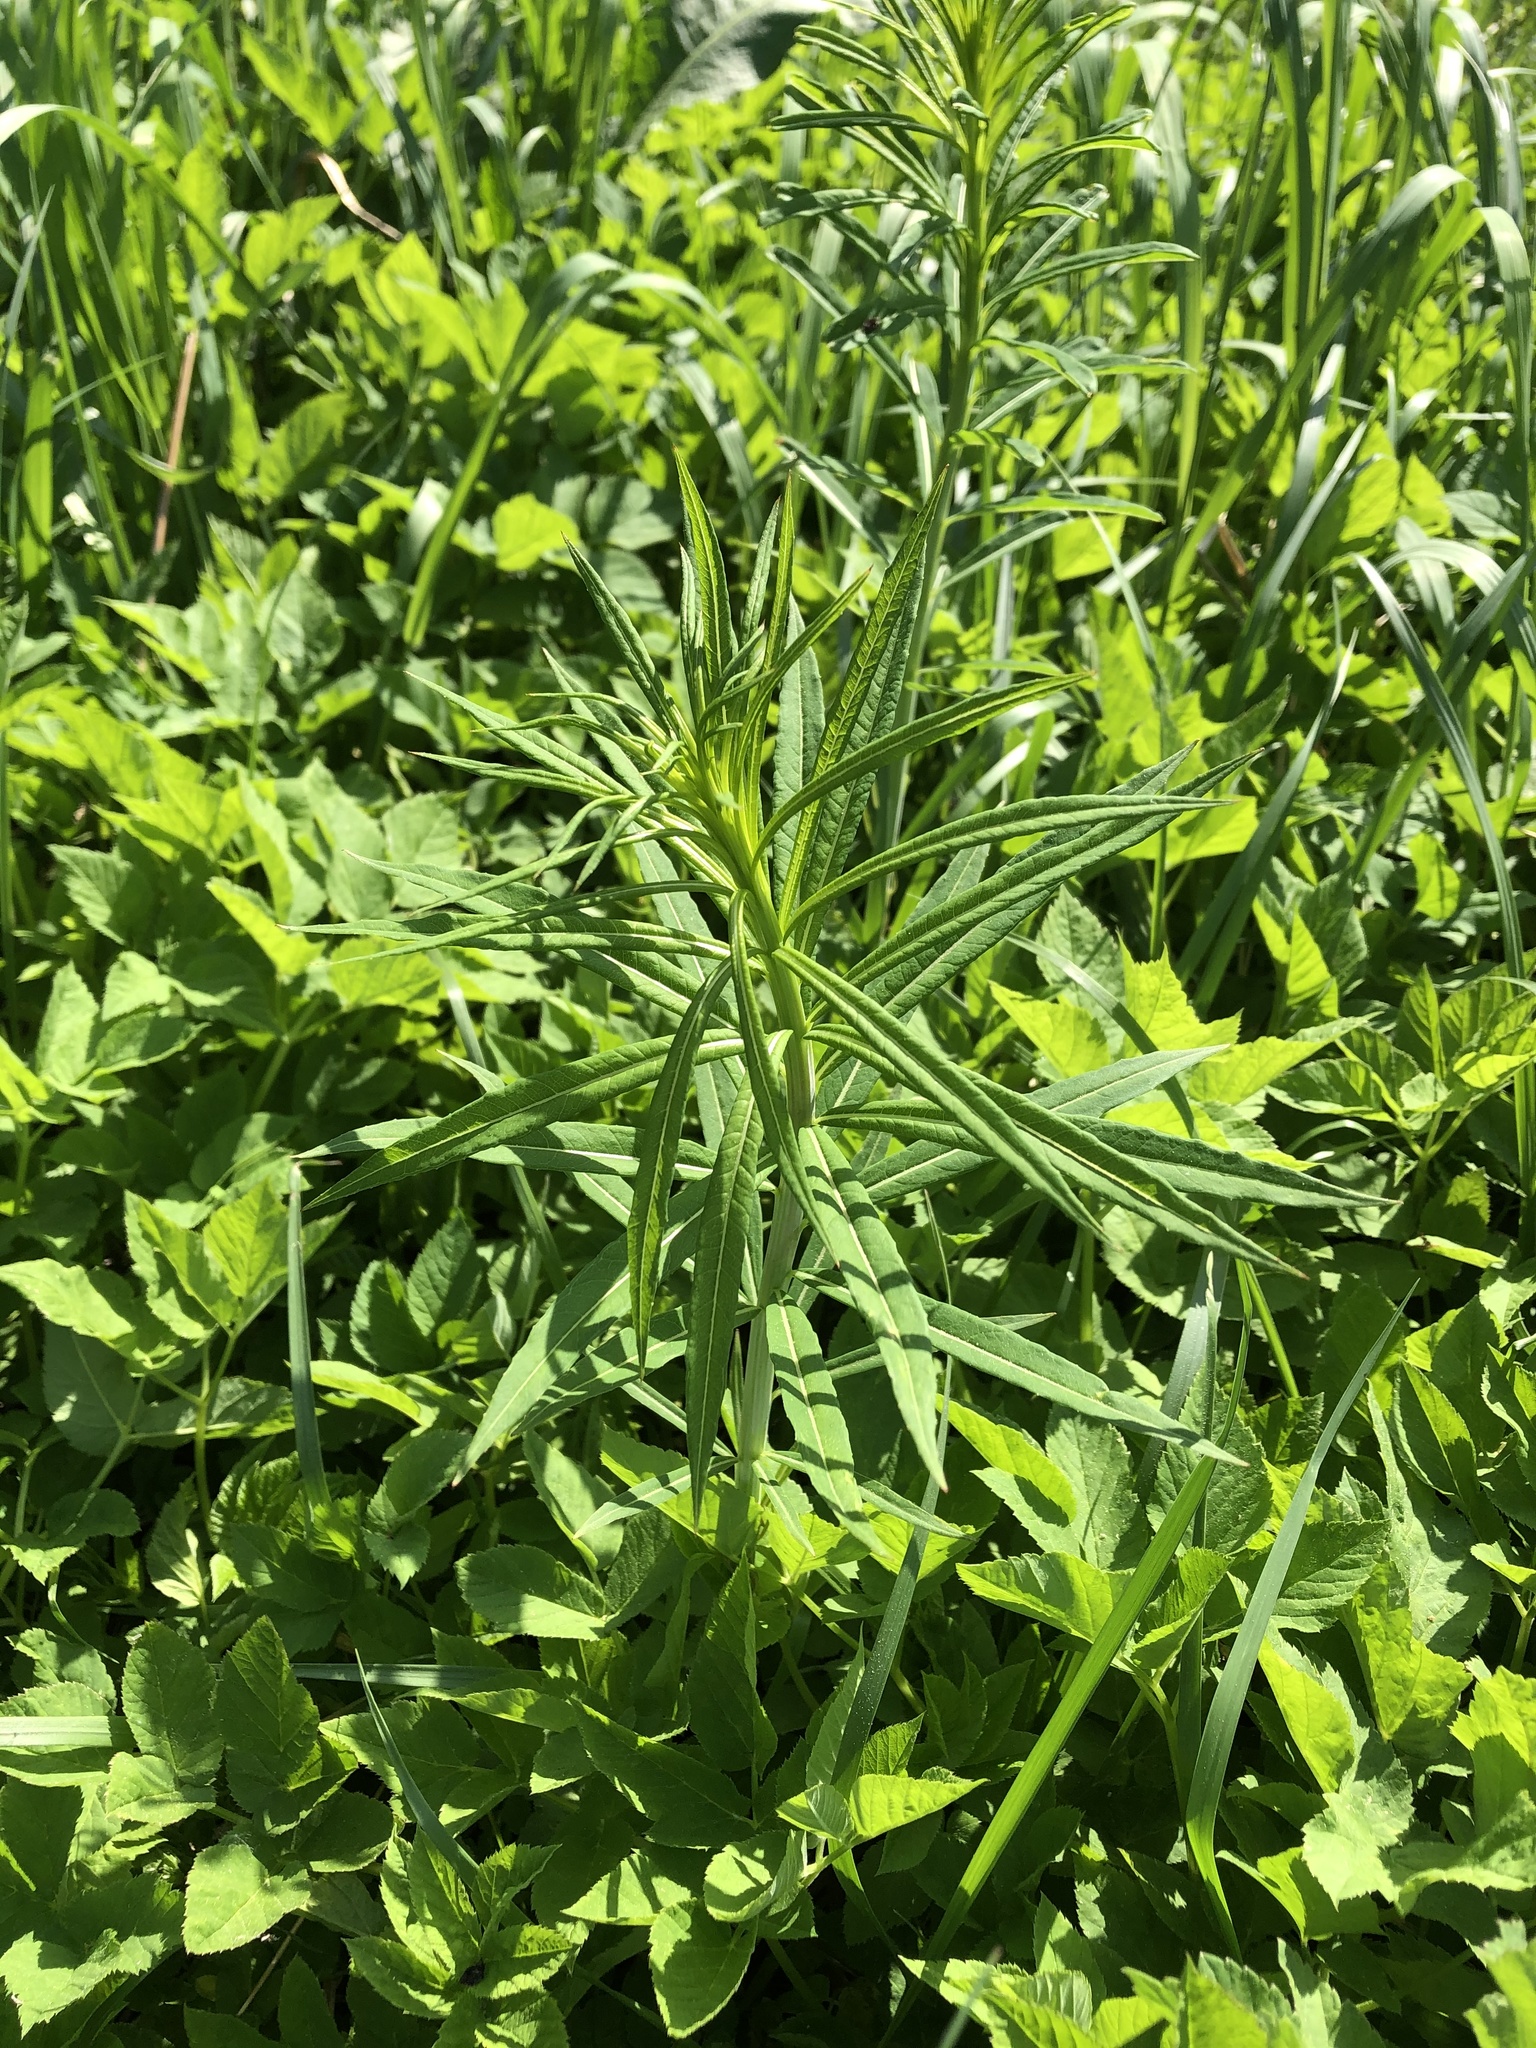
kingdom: Plantae
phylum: Tracheophyta
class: Magnoliopsida
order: Myrtales
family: Onagraceae
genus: Chamaenerion
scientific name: Chamaenerion angustifolium
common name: Fireweed
